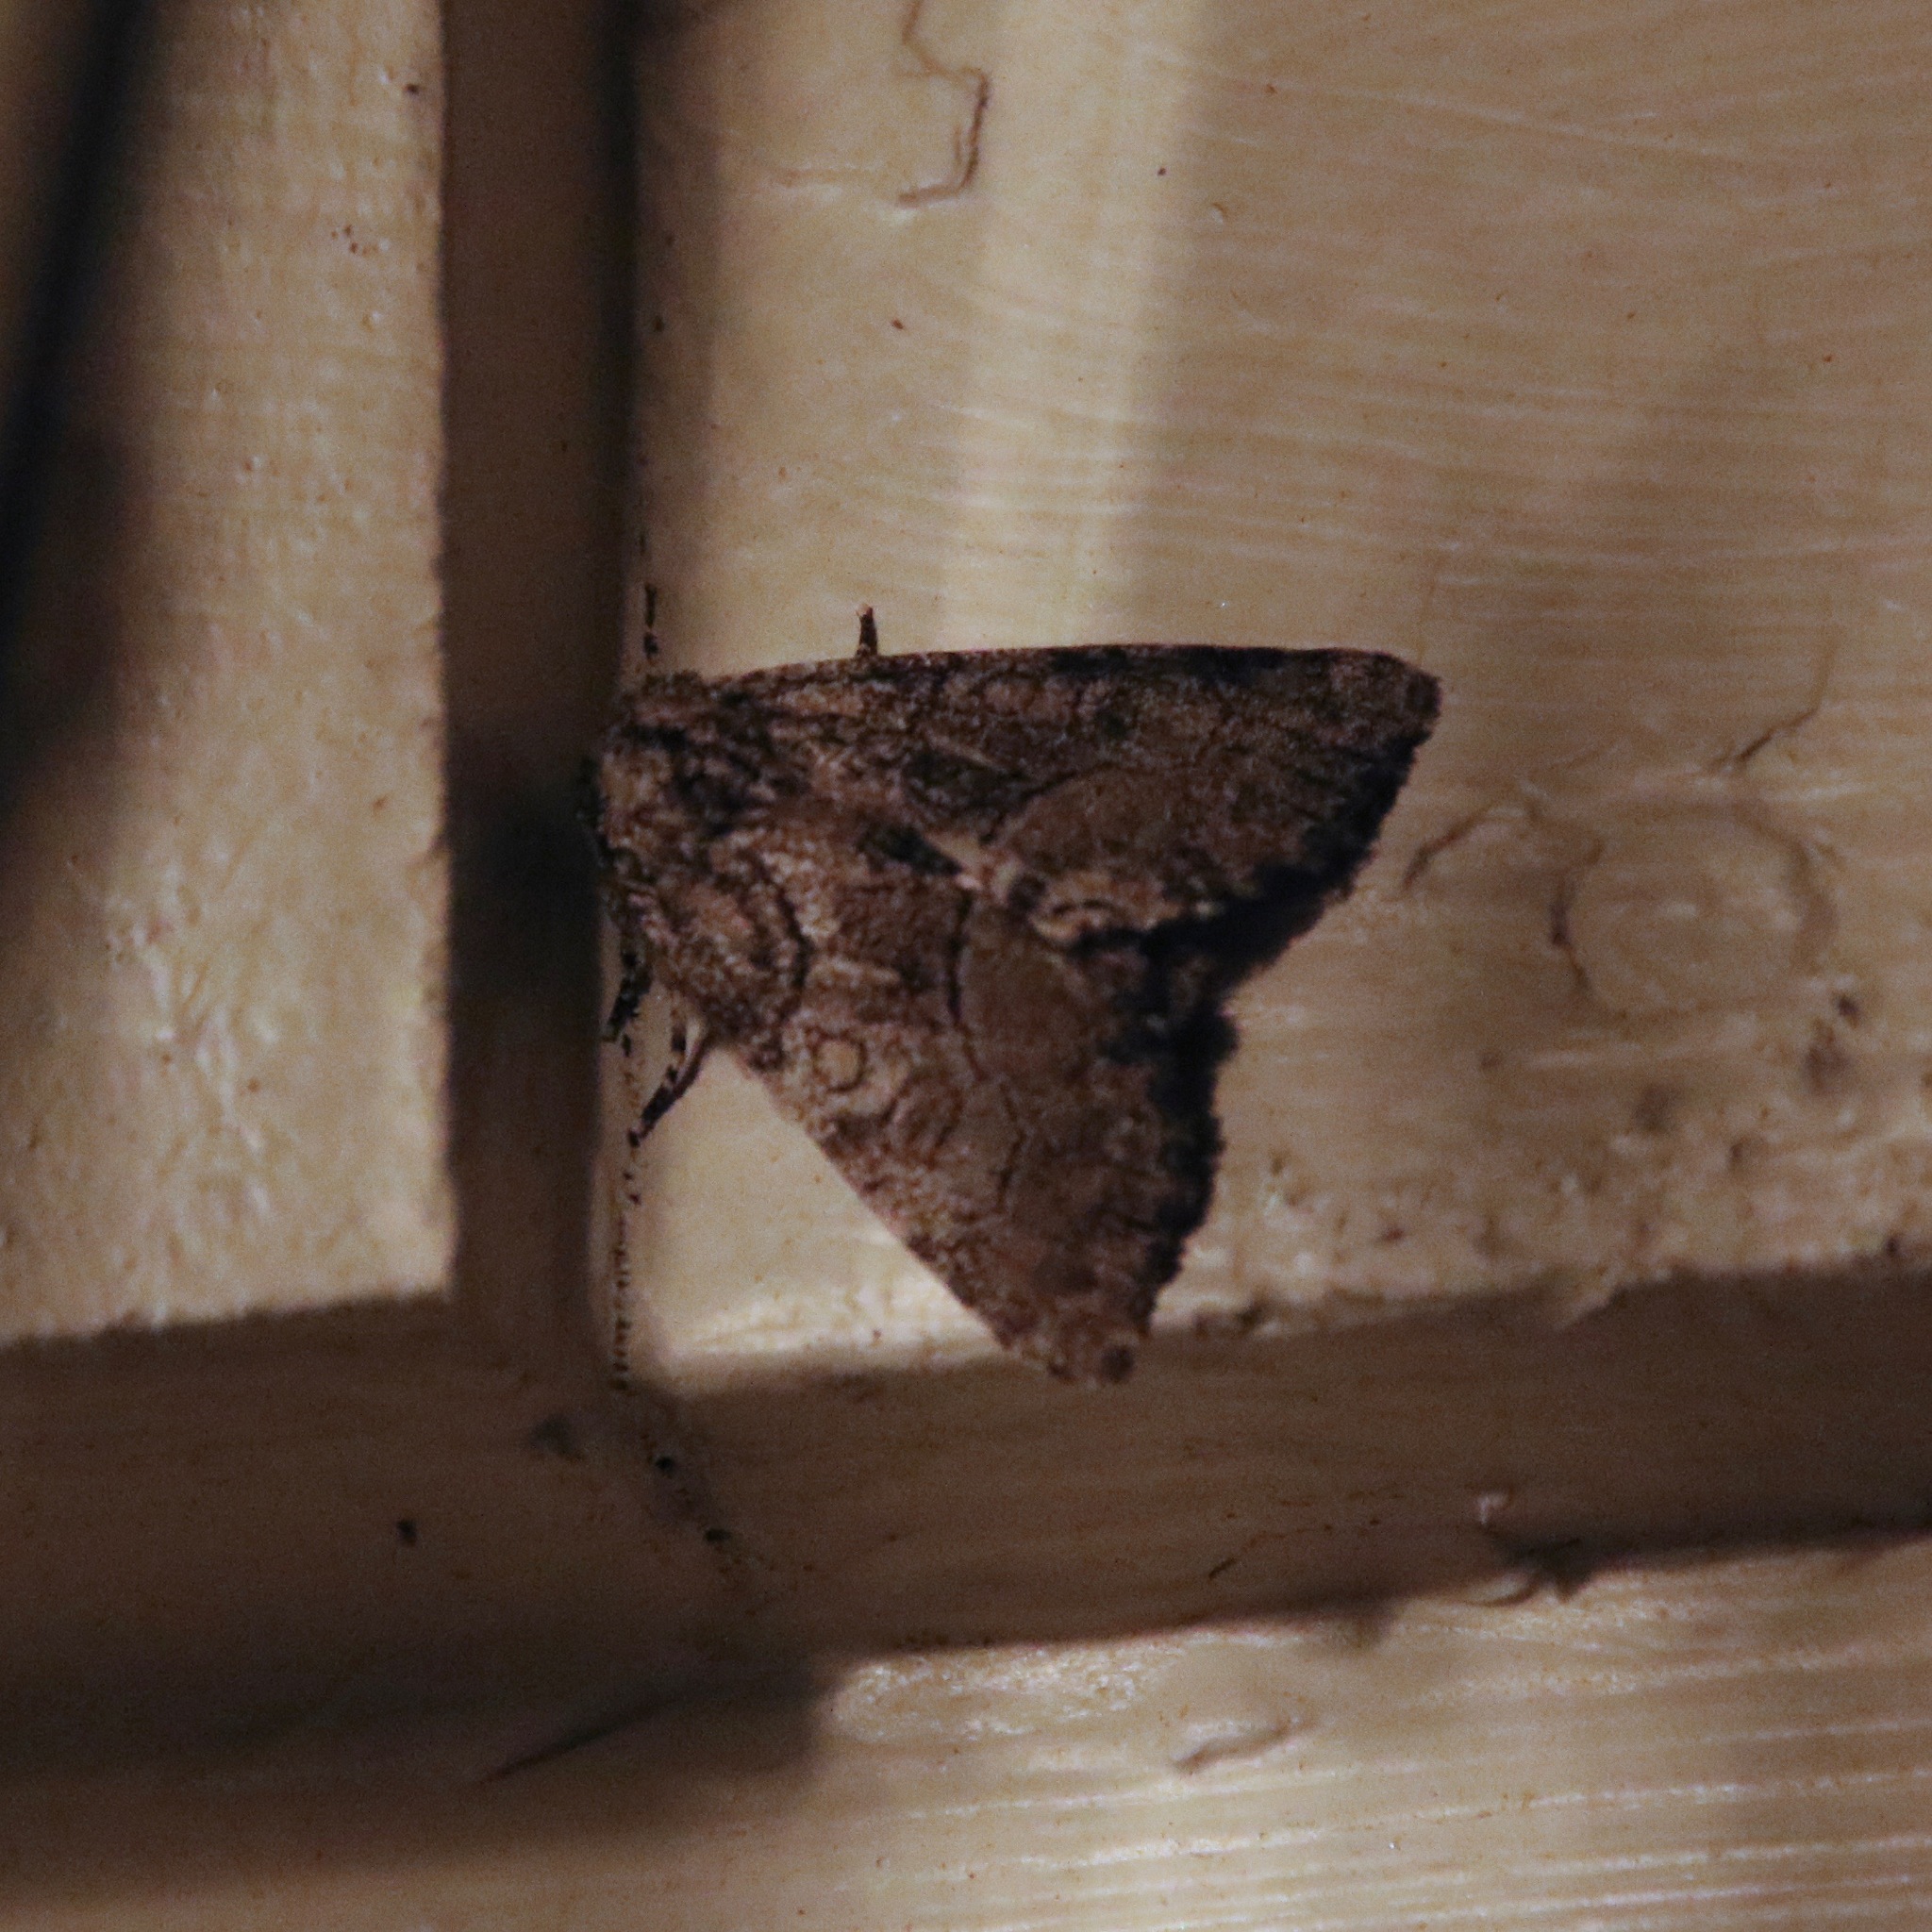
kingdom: Animalia
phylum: Arthropoda
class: Insecta
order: Lepidoptera
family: Noctuidae
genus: Raphia
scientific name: Raphia frater
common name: Brother
